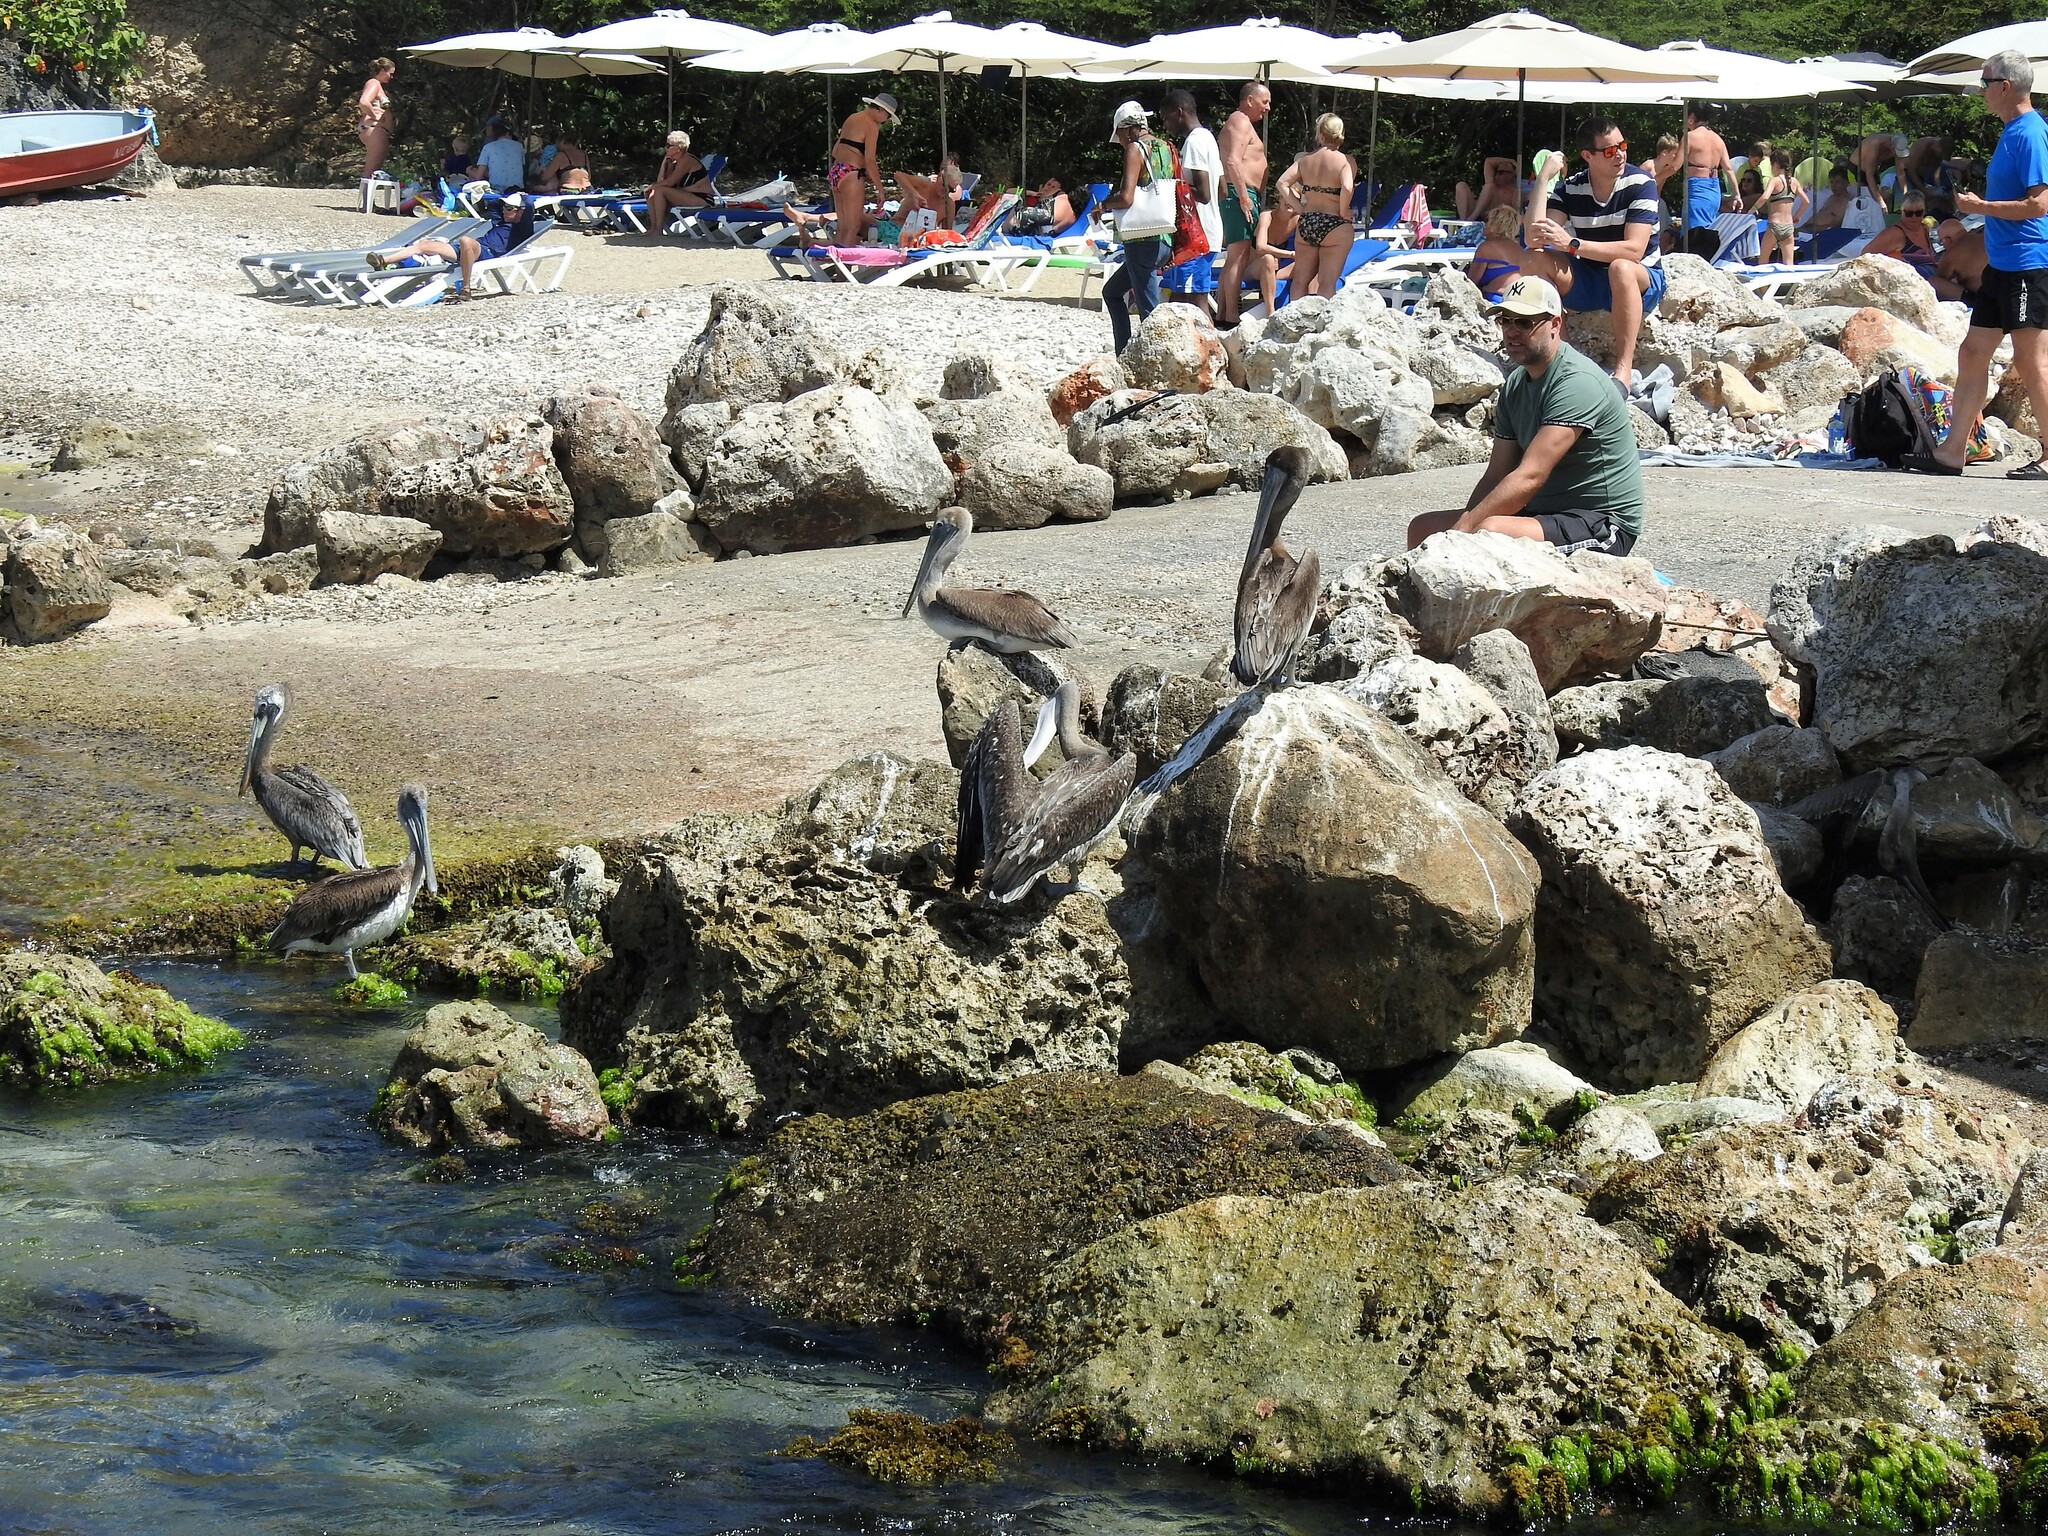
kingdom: Animalia
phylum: Chordata
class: Aves
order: Pelecaniformes
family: Pelecanidae
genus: Pelecanus
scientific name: Pelecanus occidentalis
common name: Brown pelican
